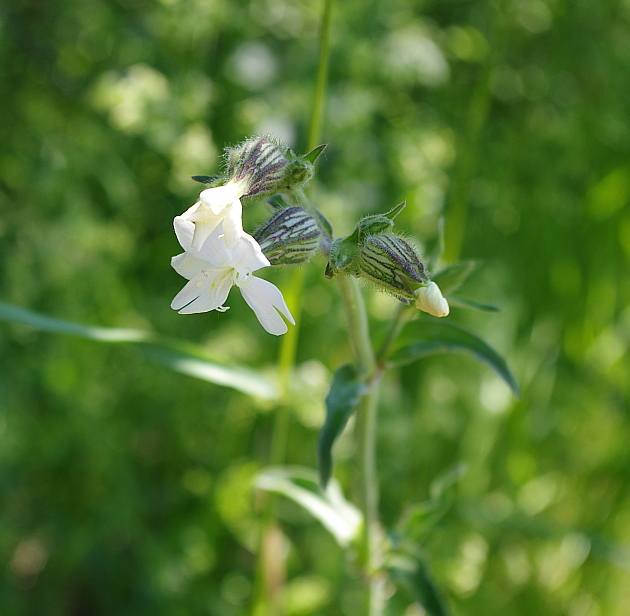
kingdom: Plantae
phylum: Tracheophyta
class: Magnoliopsida
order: Caryophyllales
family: Caryophyllaceae
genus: Silene
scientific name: Silene latifolia
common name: White campion
